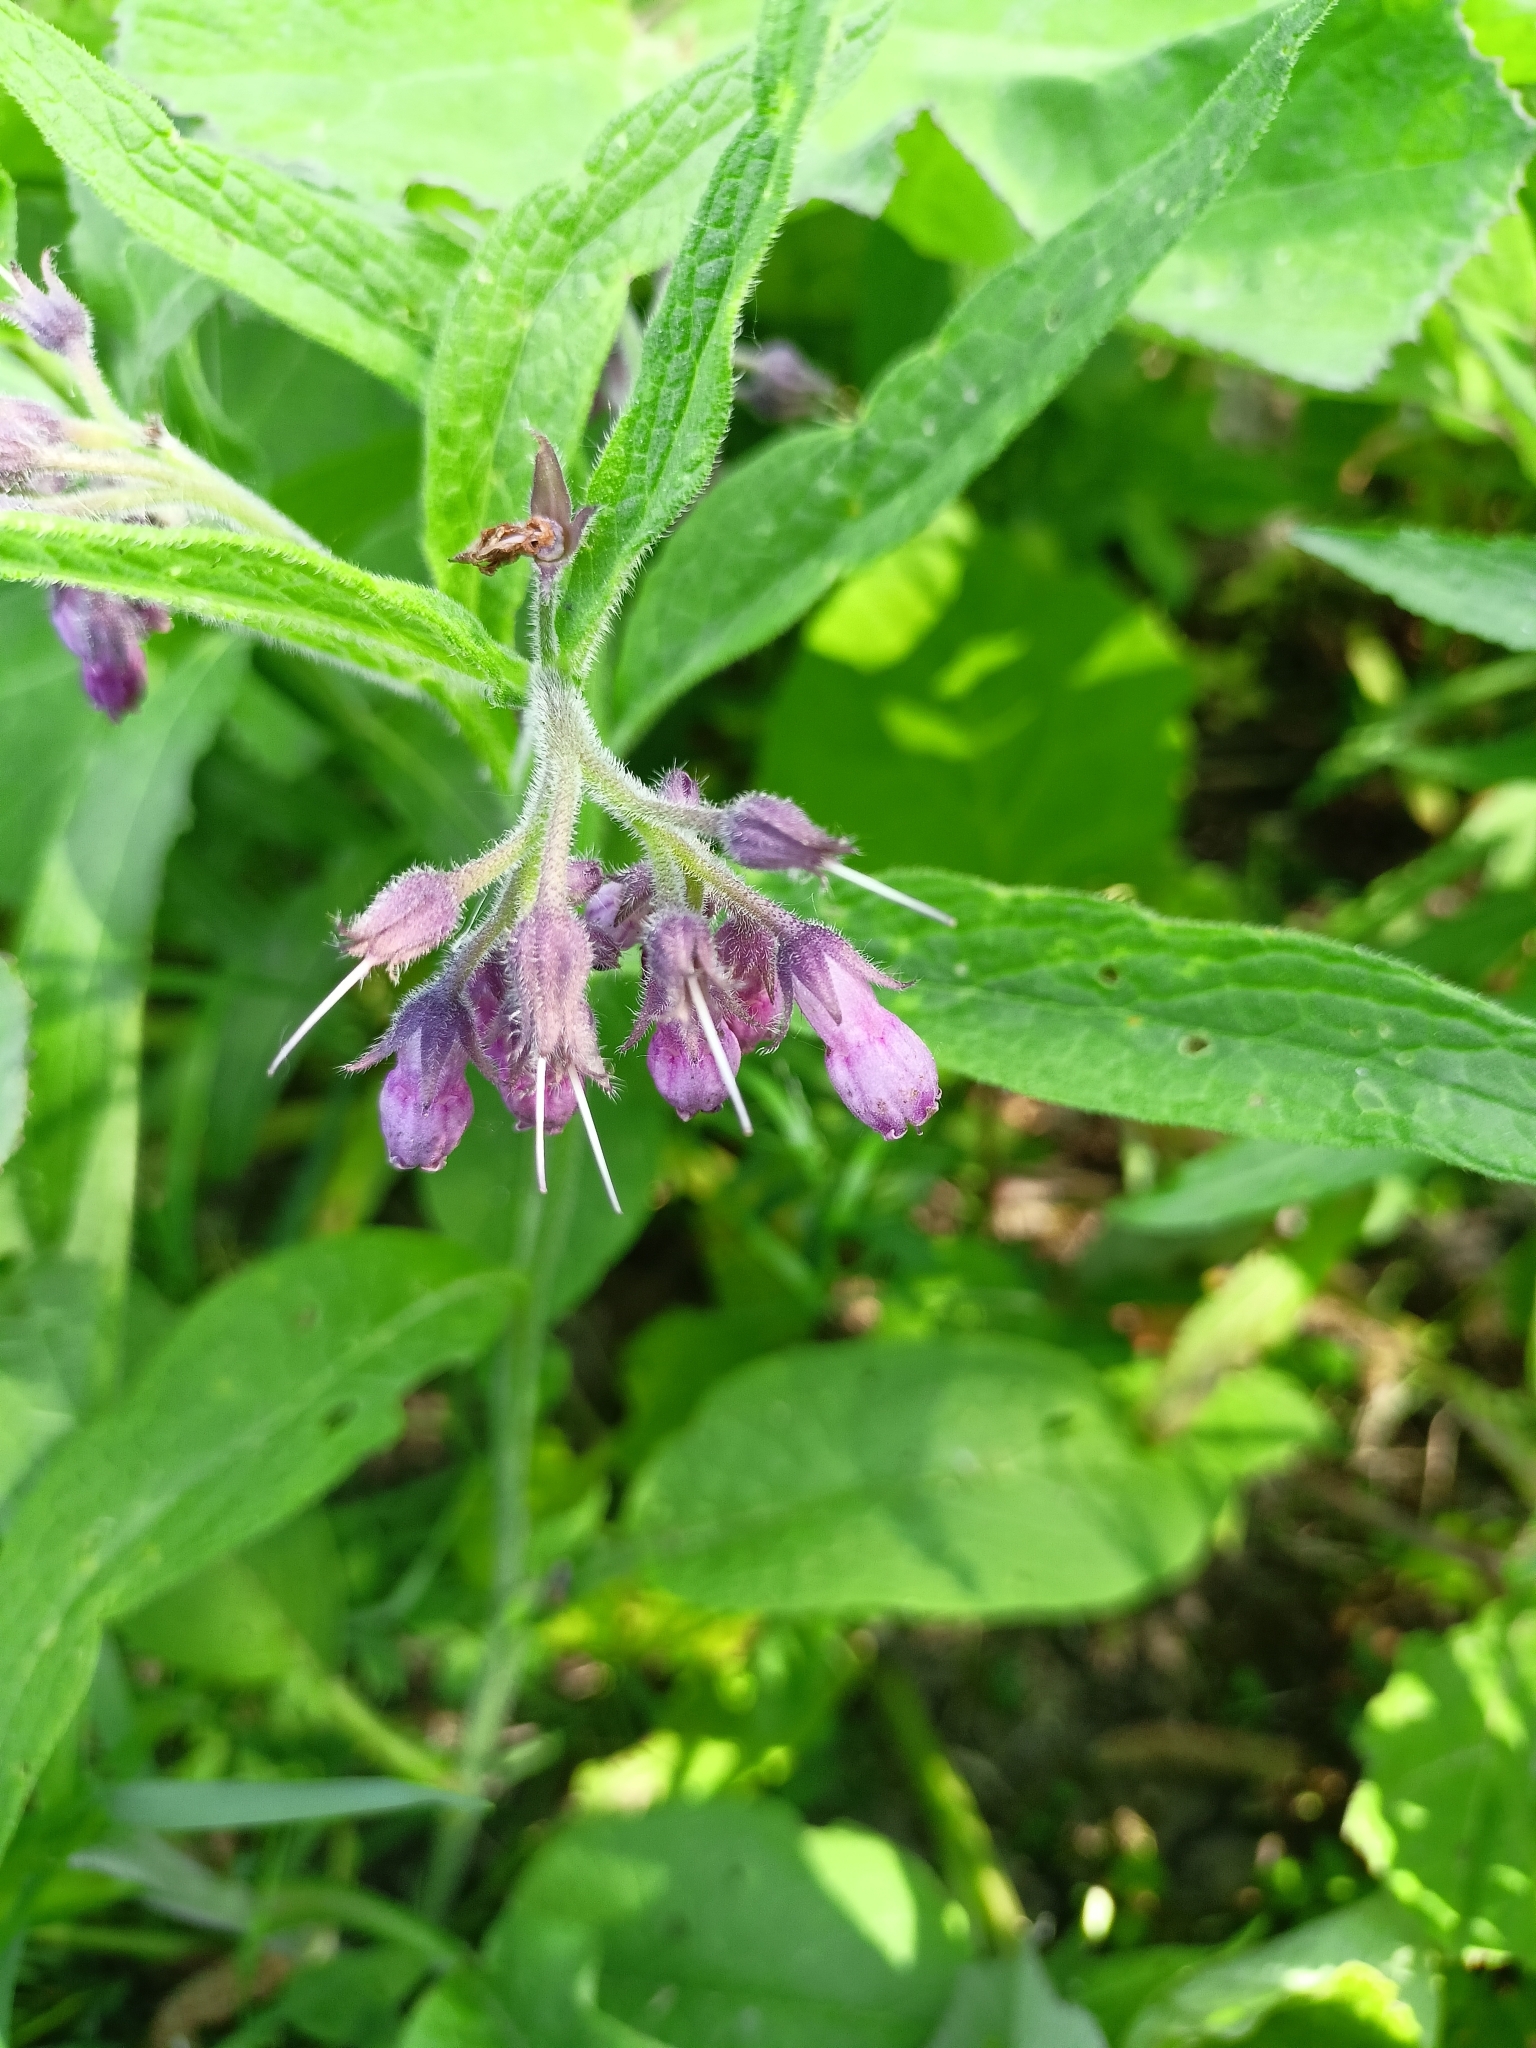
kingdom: Plantae
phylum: Tracheophyta
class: Magnoliopsida
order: Boraginales
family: Boraginaceae
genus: Symphytum
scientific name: Symphytum officinale
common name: Common comfrey
